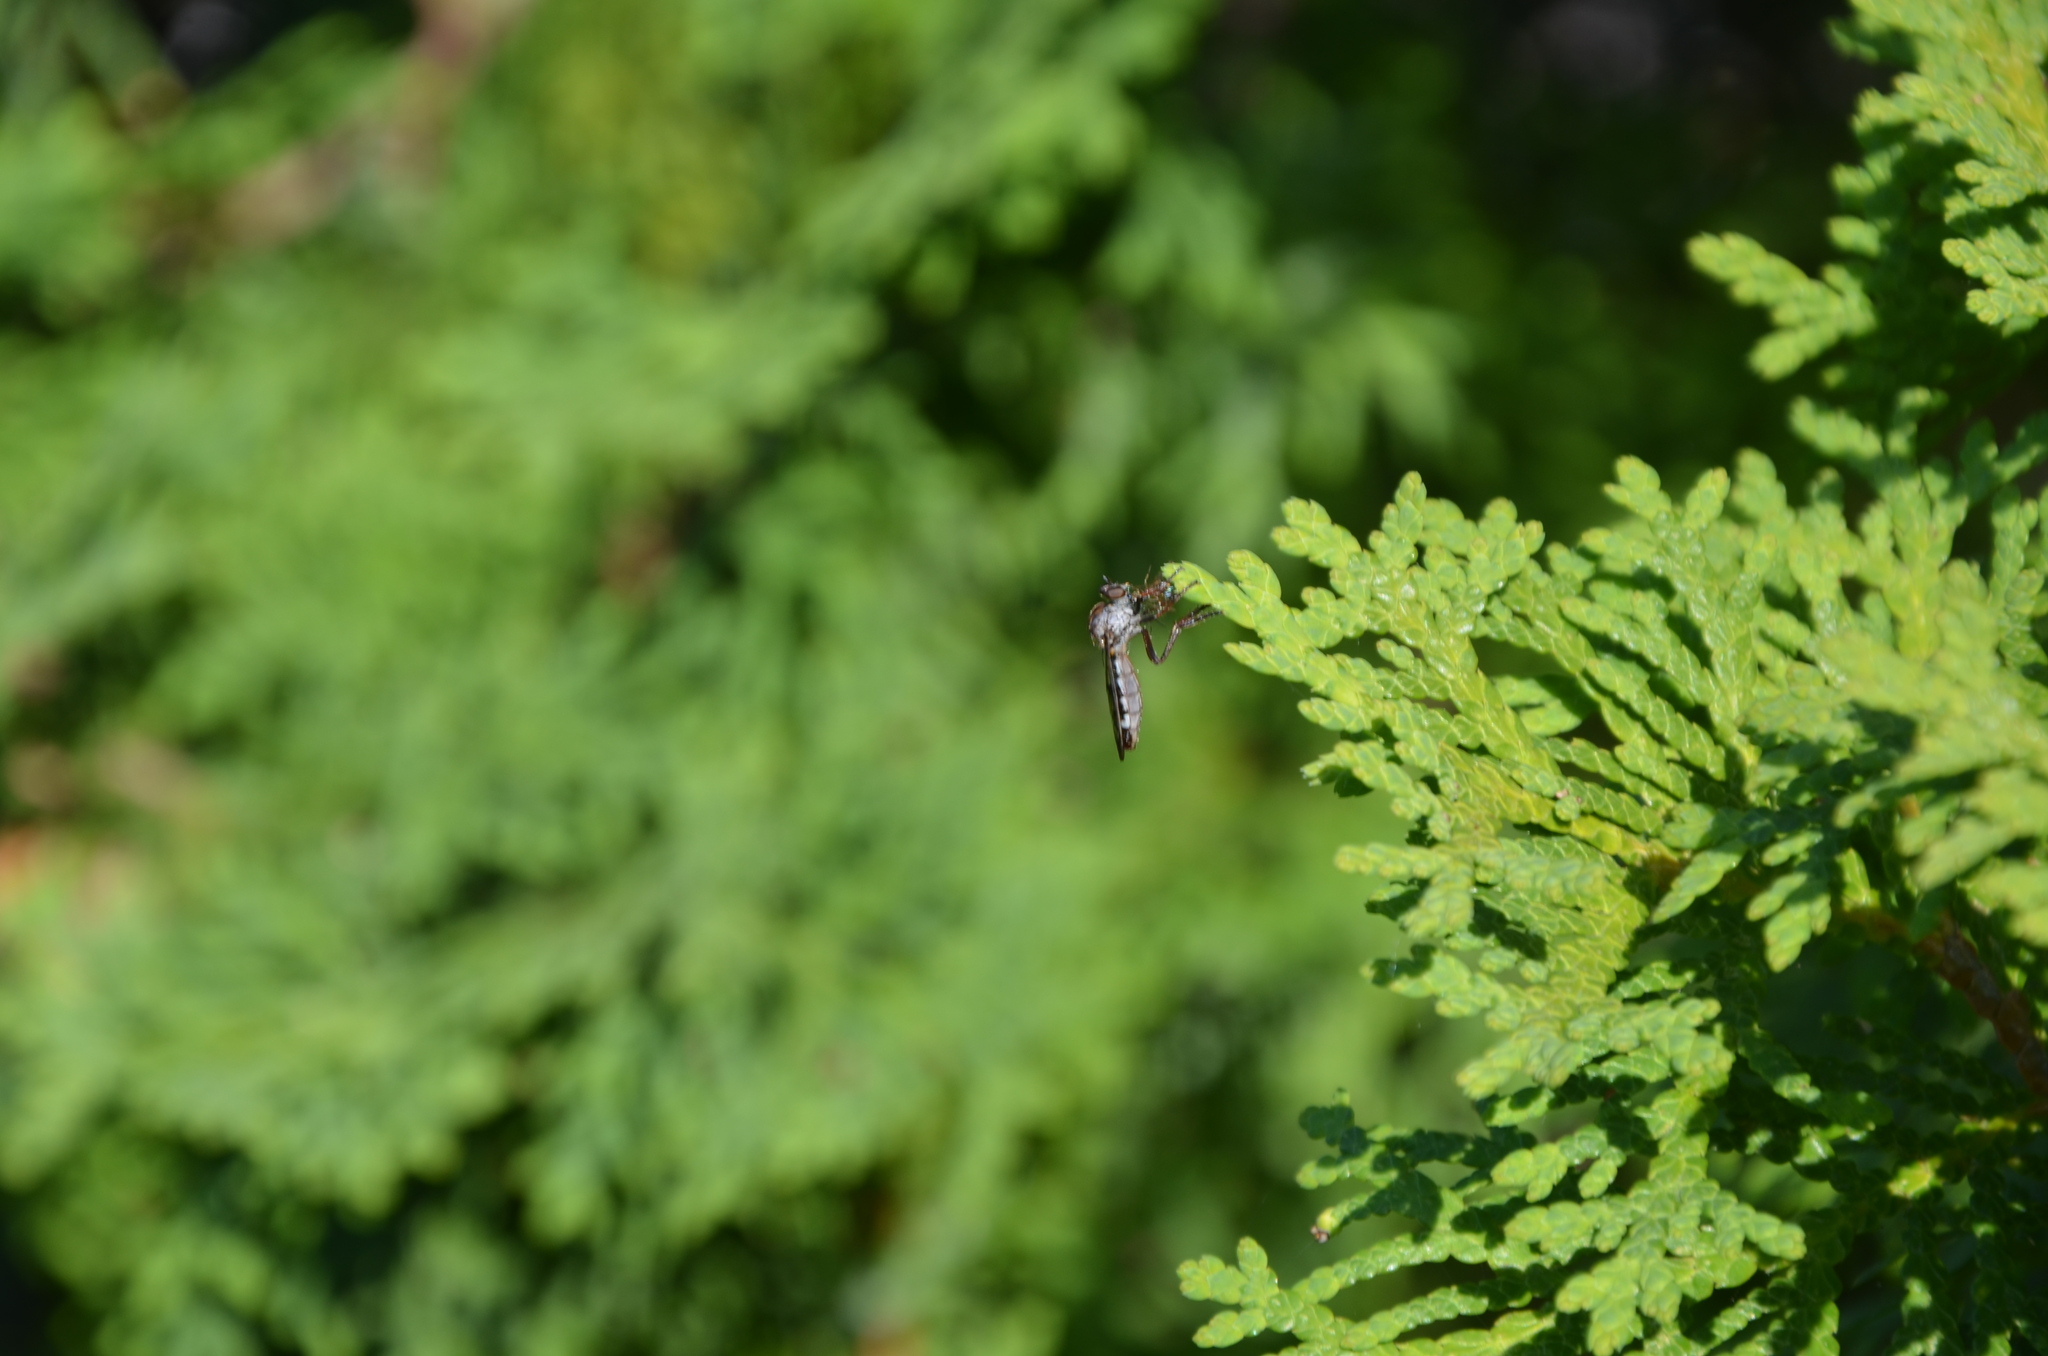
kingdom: Animalia
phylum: Arthropoda
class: Insecta
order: Diptera
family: Asilidae
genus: Nicocles
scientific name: Nicocles canadensis
